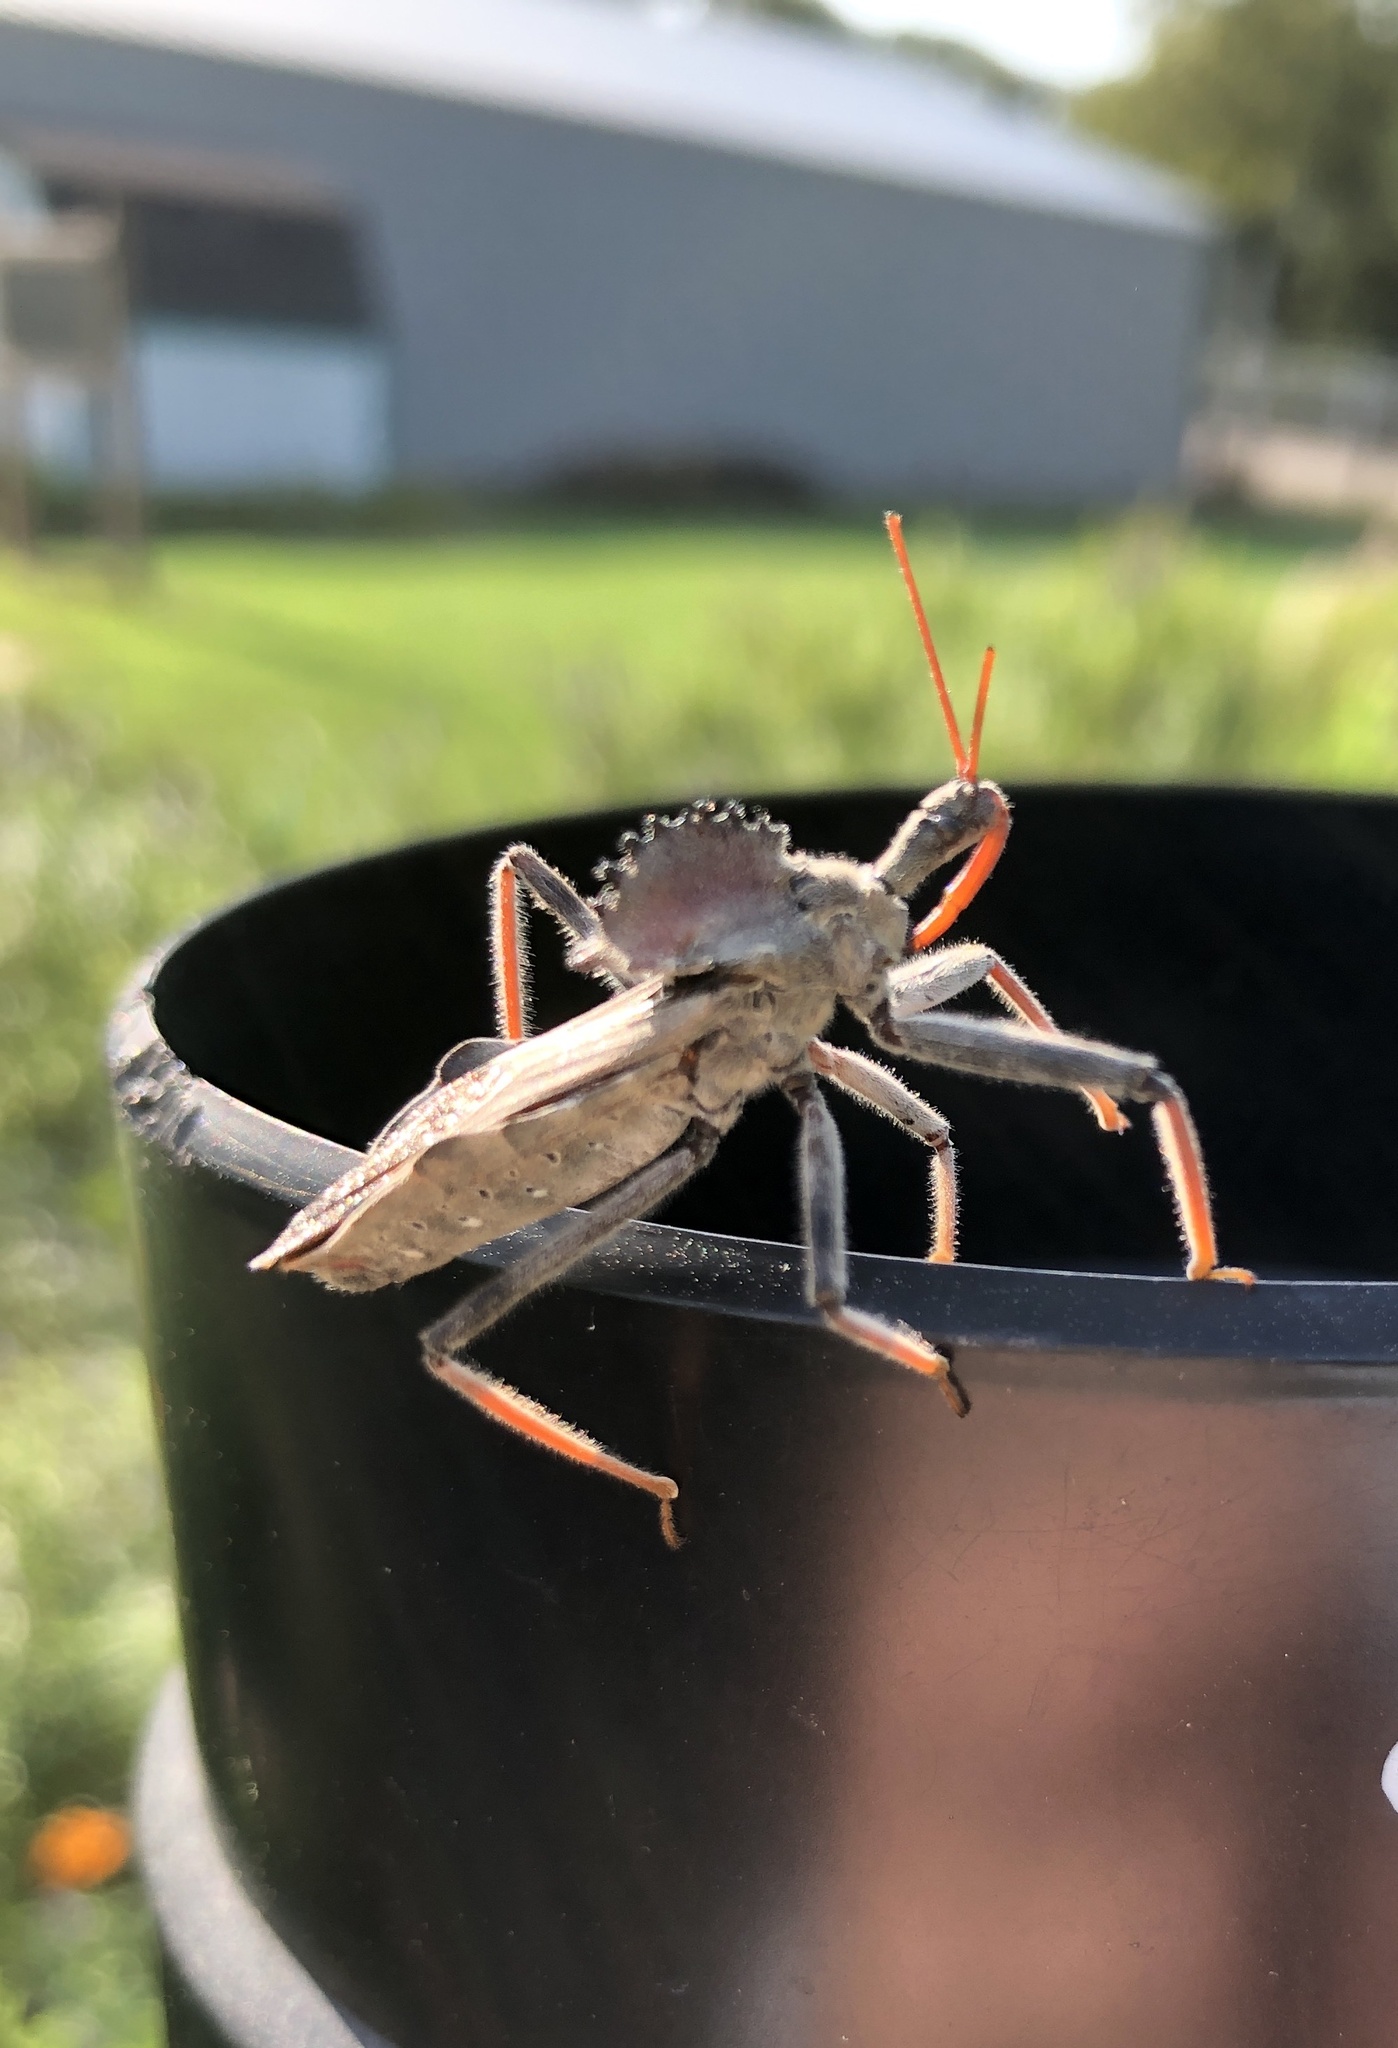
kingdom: Animalia
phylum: Arthropoda
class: Insecta
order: Hemiptera
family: Reduviidae
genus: Arilus
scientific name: Arilus cristatus
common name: North american wheel bug
